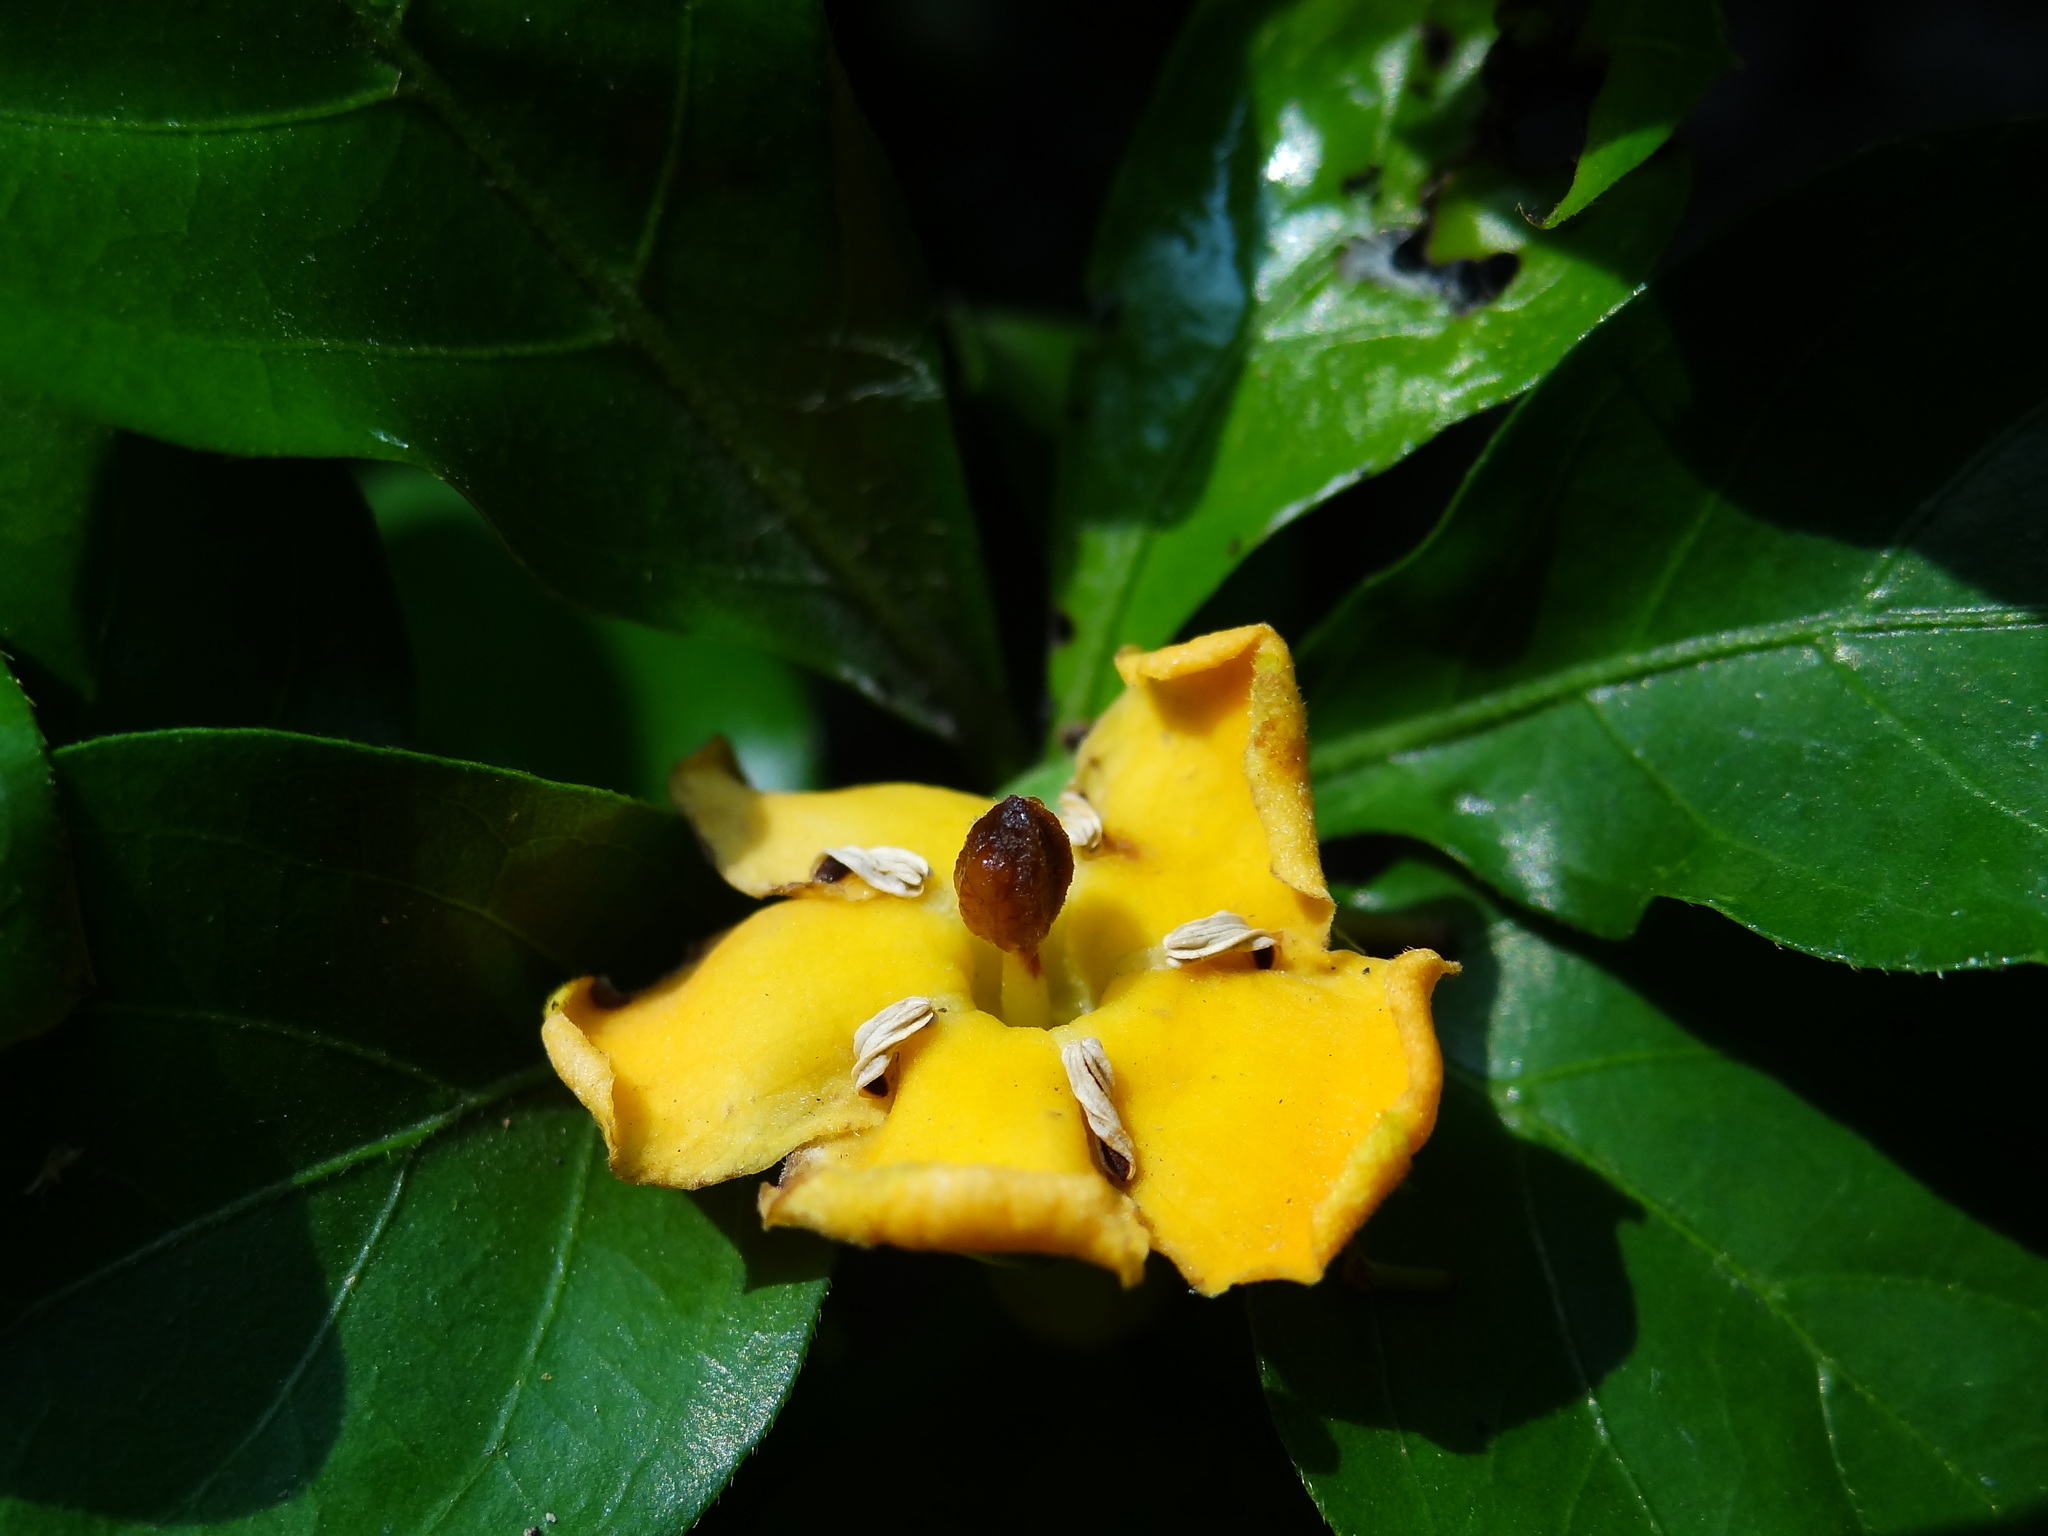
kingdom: Plantae
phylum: Tracheophyta
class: Magnoliopsida
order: Gentianales
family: Rubiaceae
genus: Catunaregam
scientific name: Catunaregam spinosa
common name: Emetic-nut
